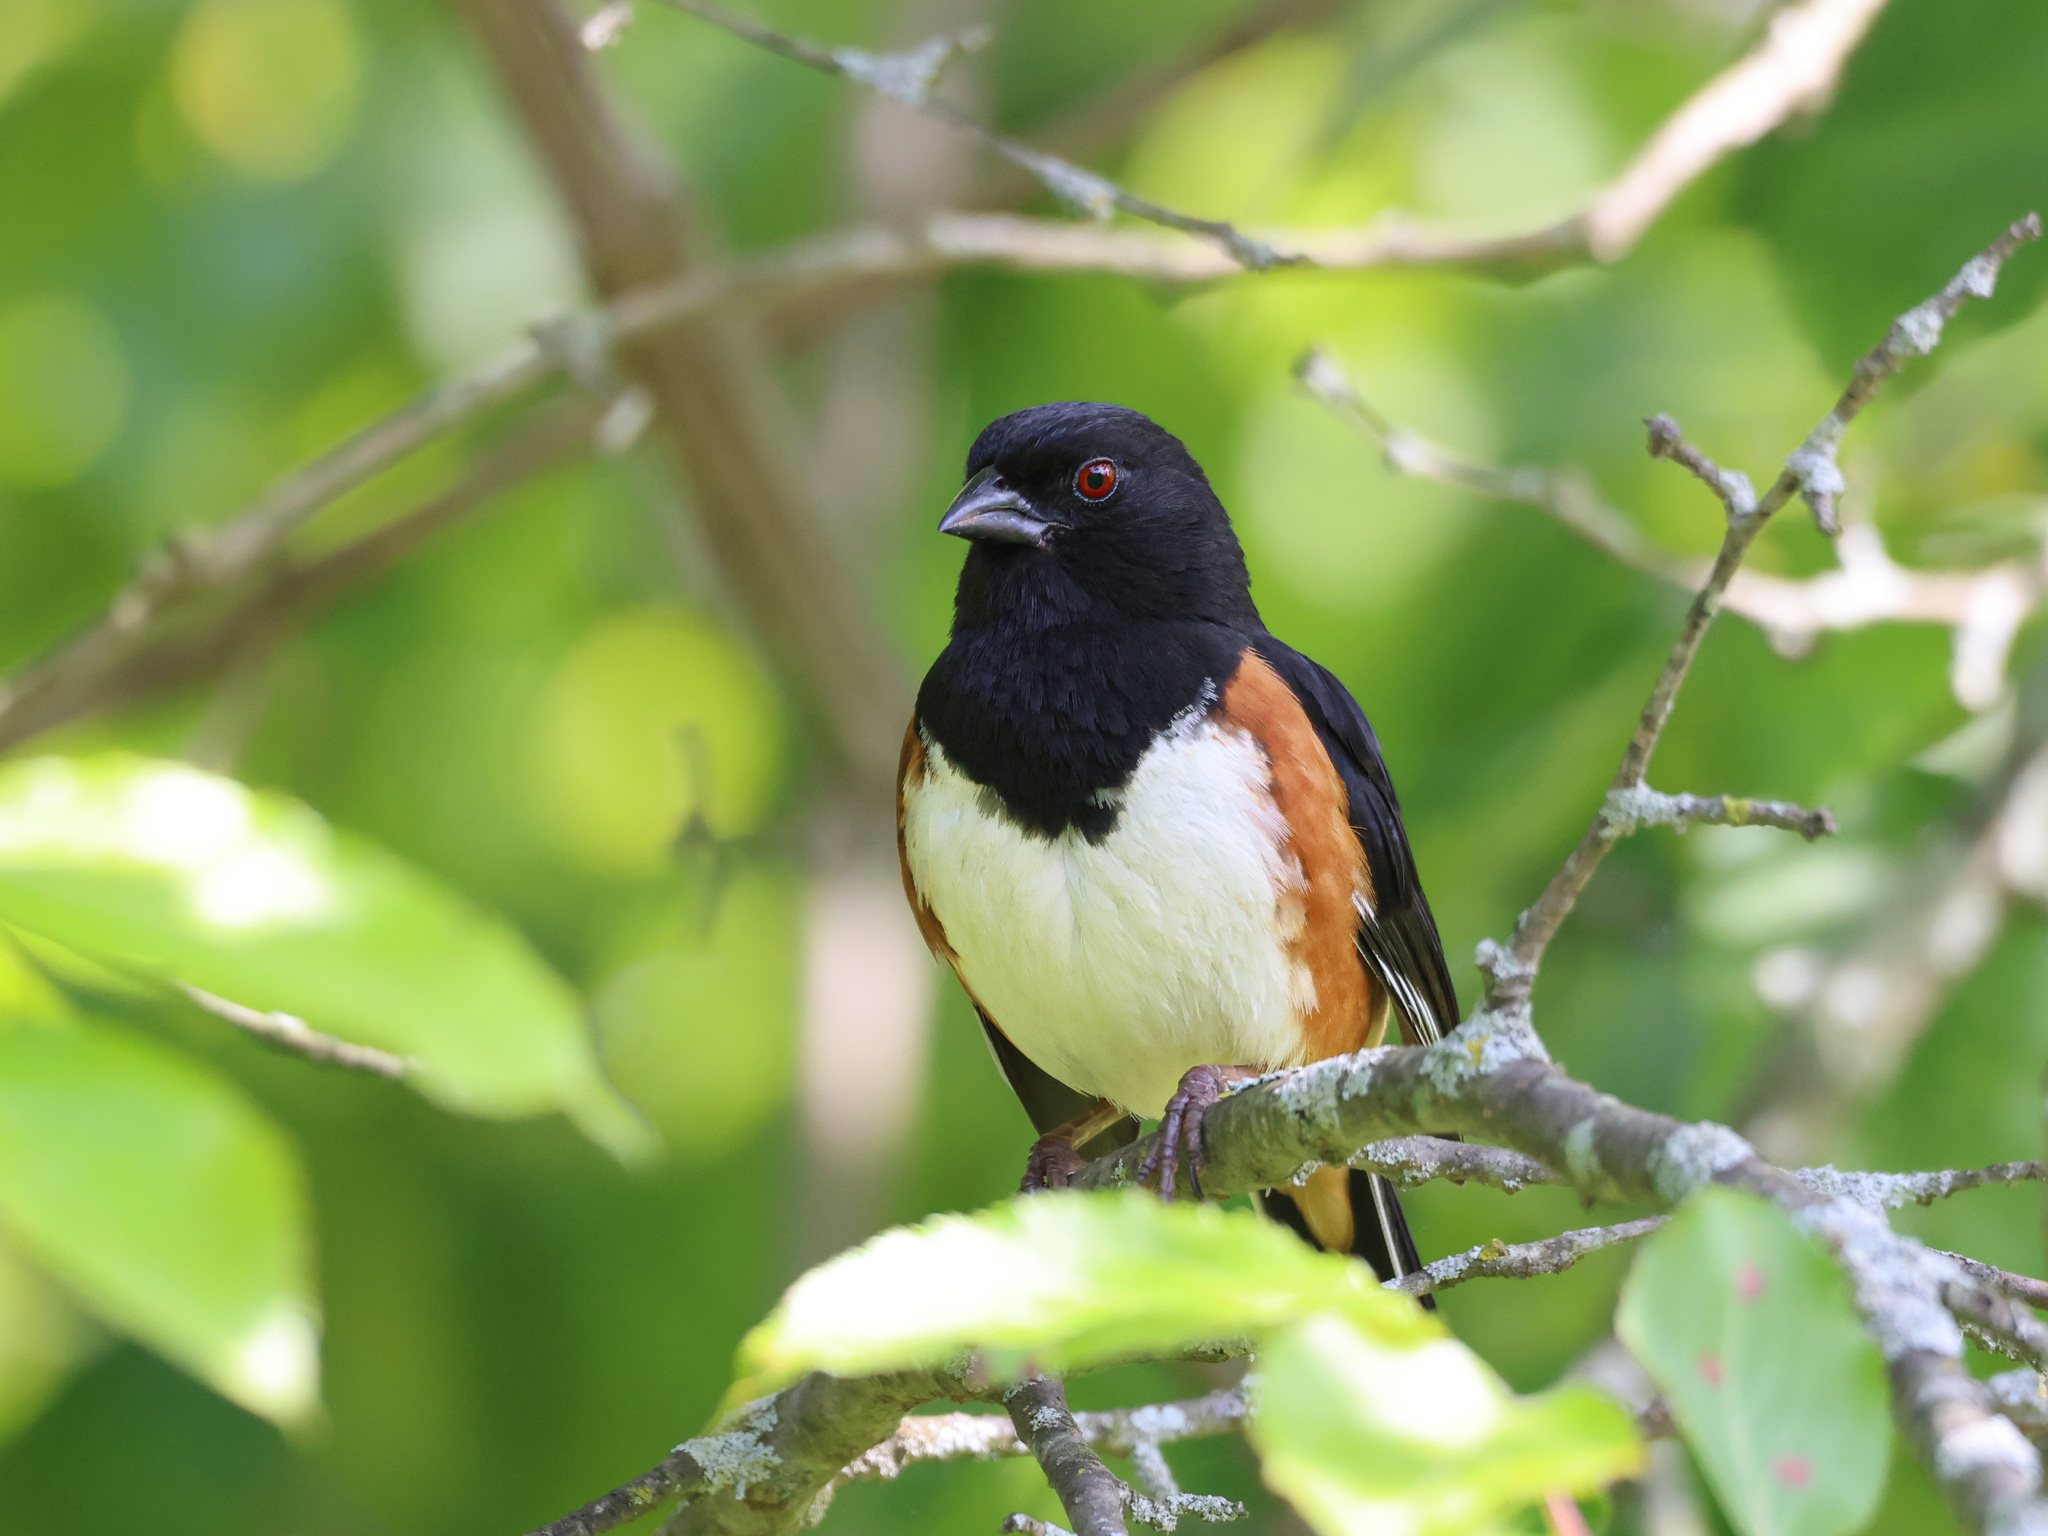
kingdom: Animalia
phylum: Chordata
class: Aves
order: Passeriformes
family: Passerellidae
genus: Pipilo
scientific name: Pipilo erythrophthalmus
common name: Eastern towhee
